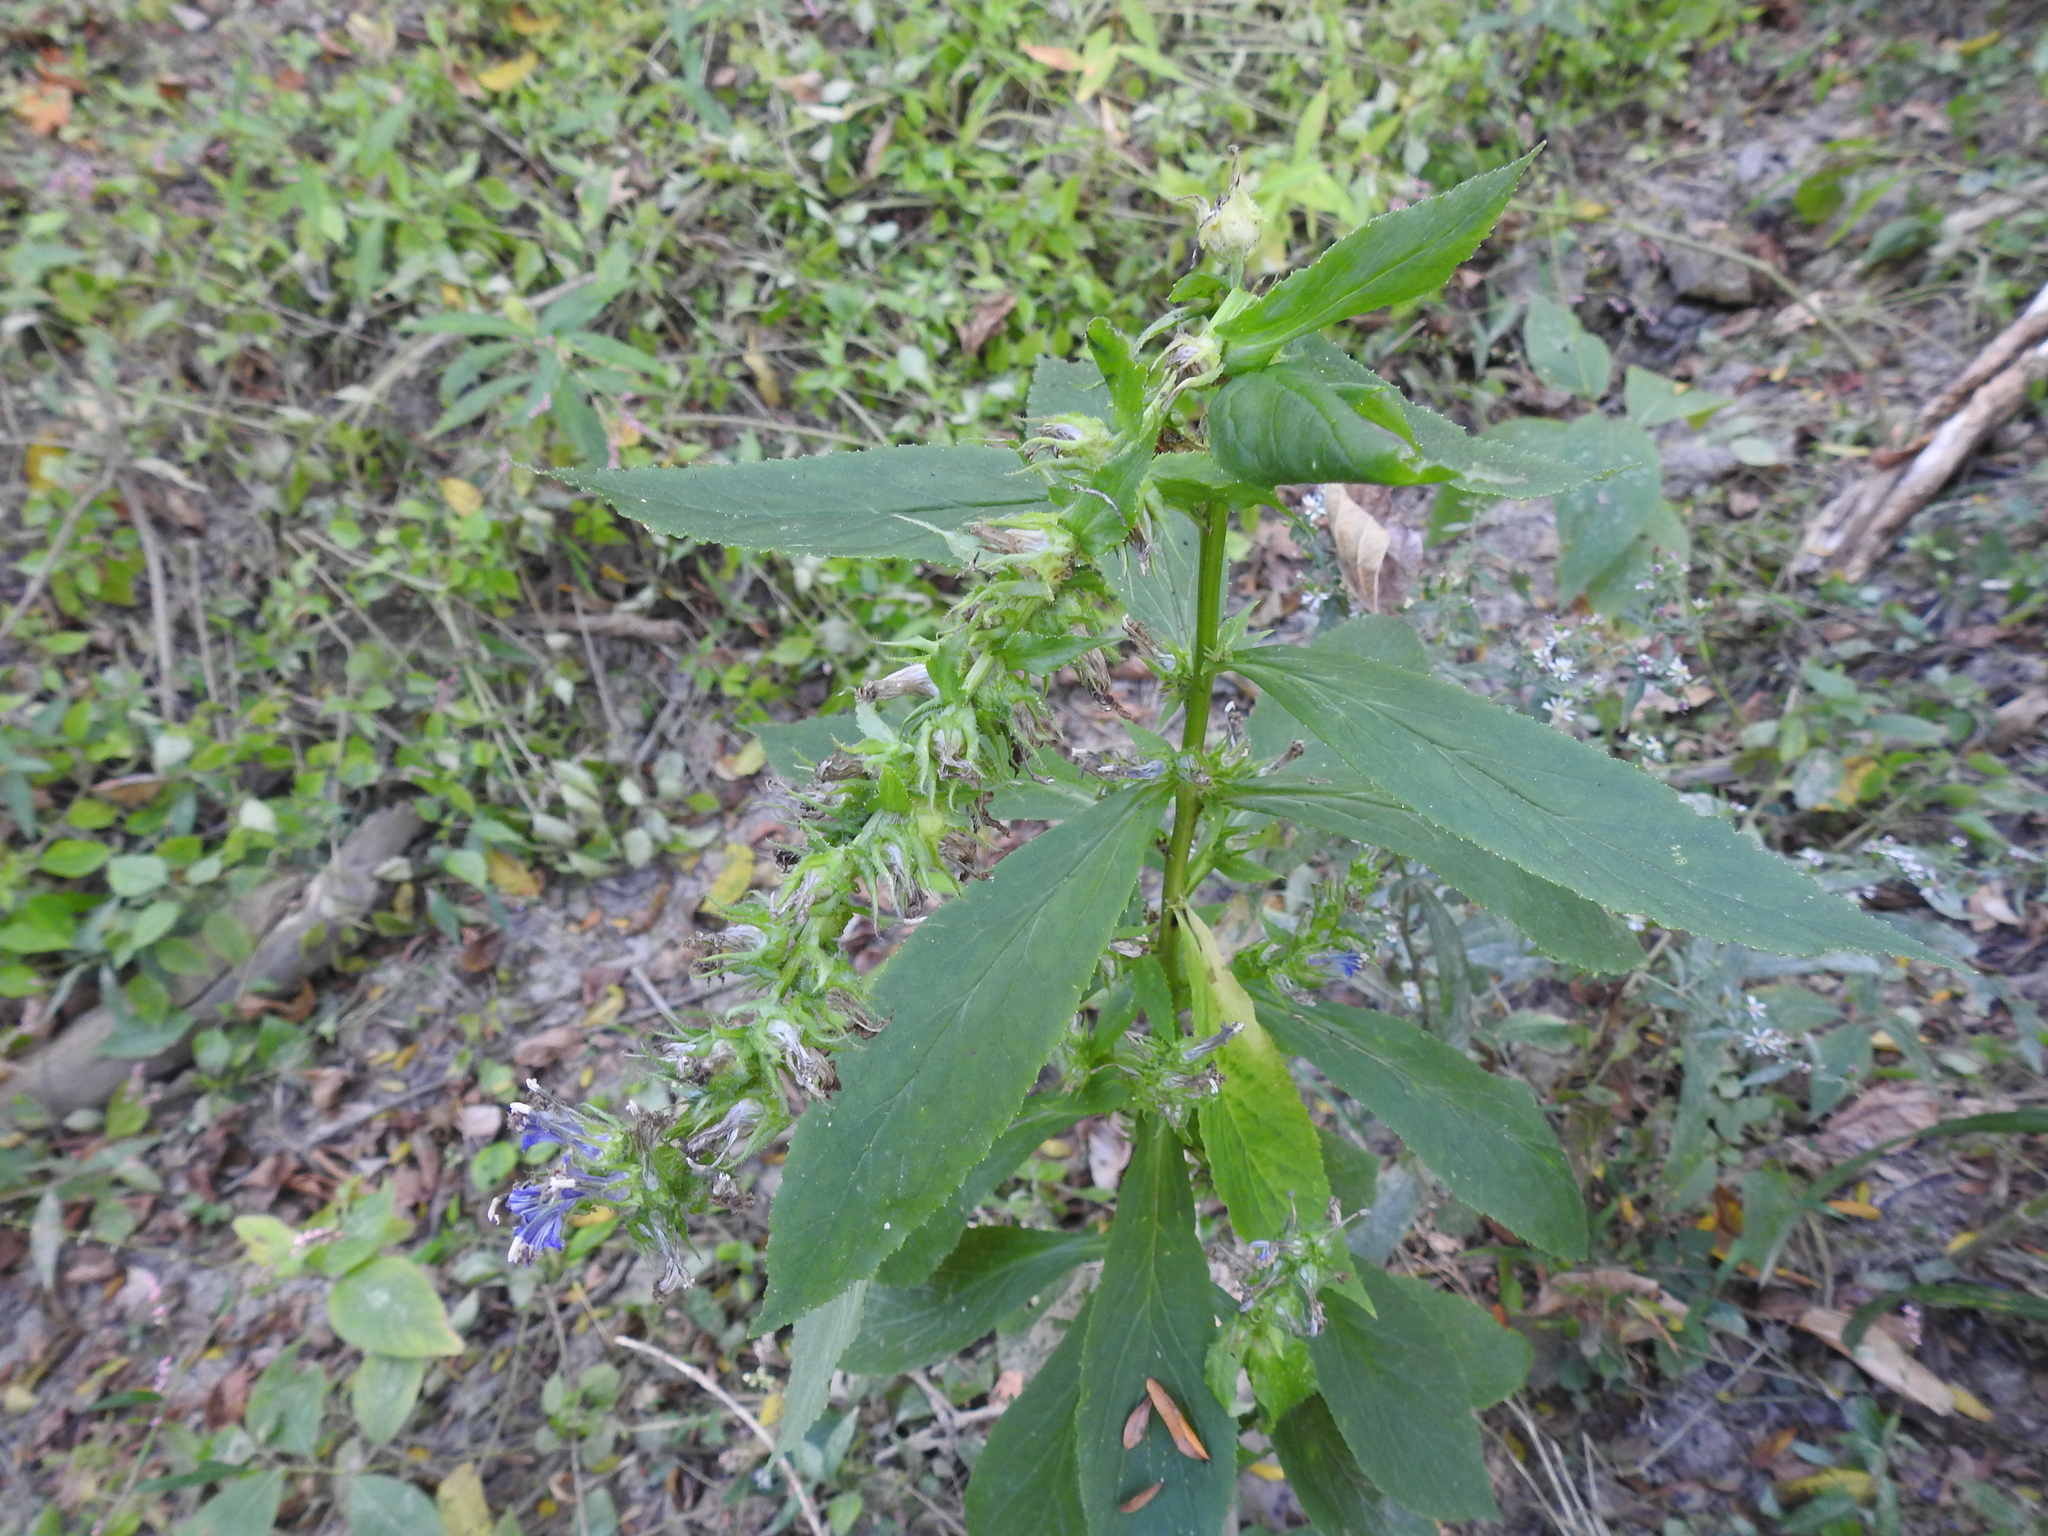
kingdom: Plantae
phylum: Tracheophyta
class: Magnoliopsida
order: Asterales
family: Campanulaceae
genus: Lobelia
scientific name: Lobelia siphilitica
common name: Great lobelia
